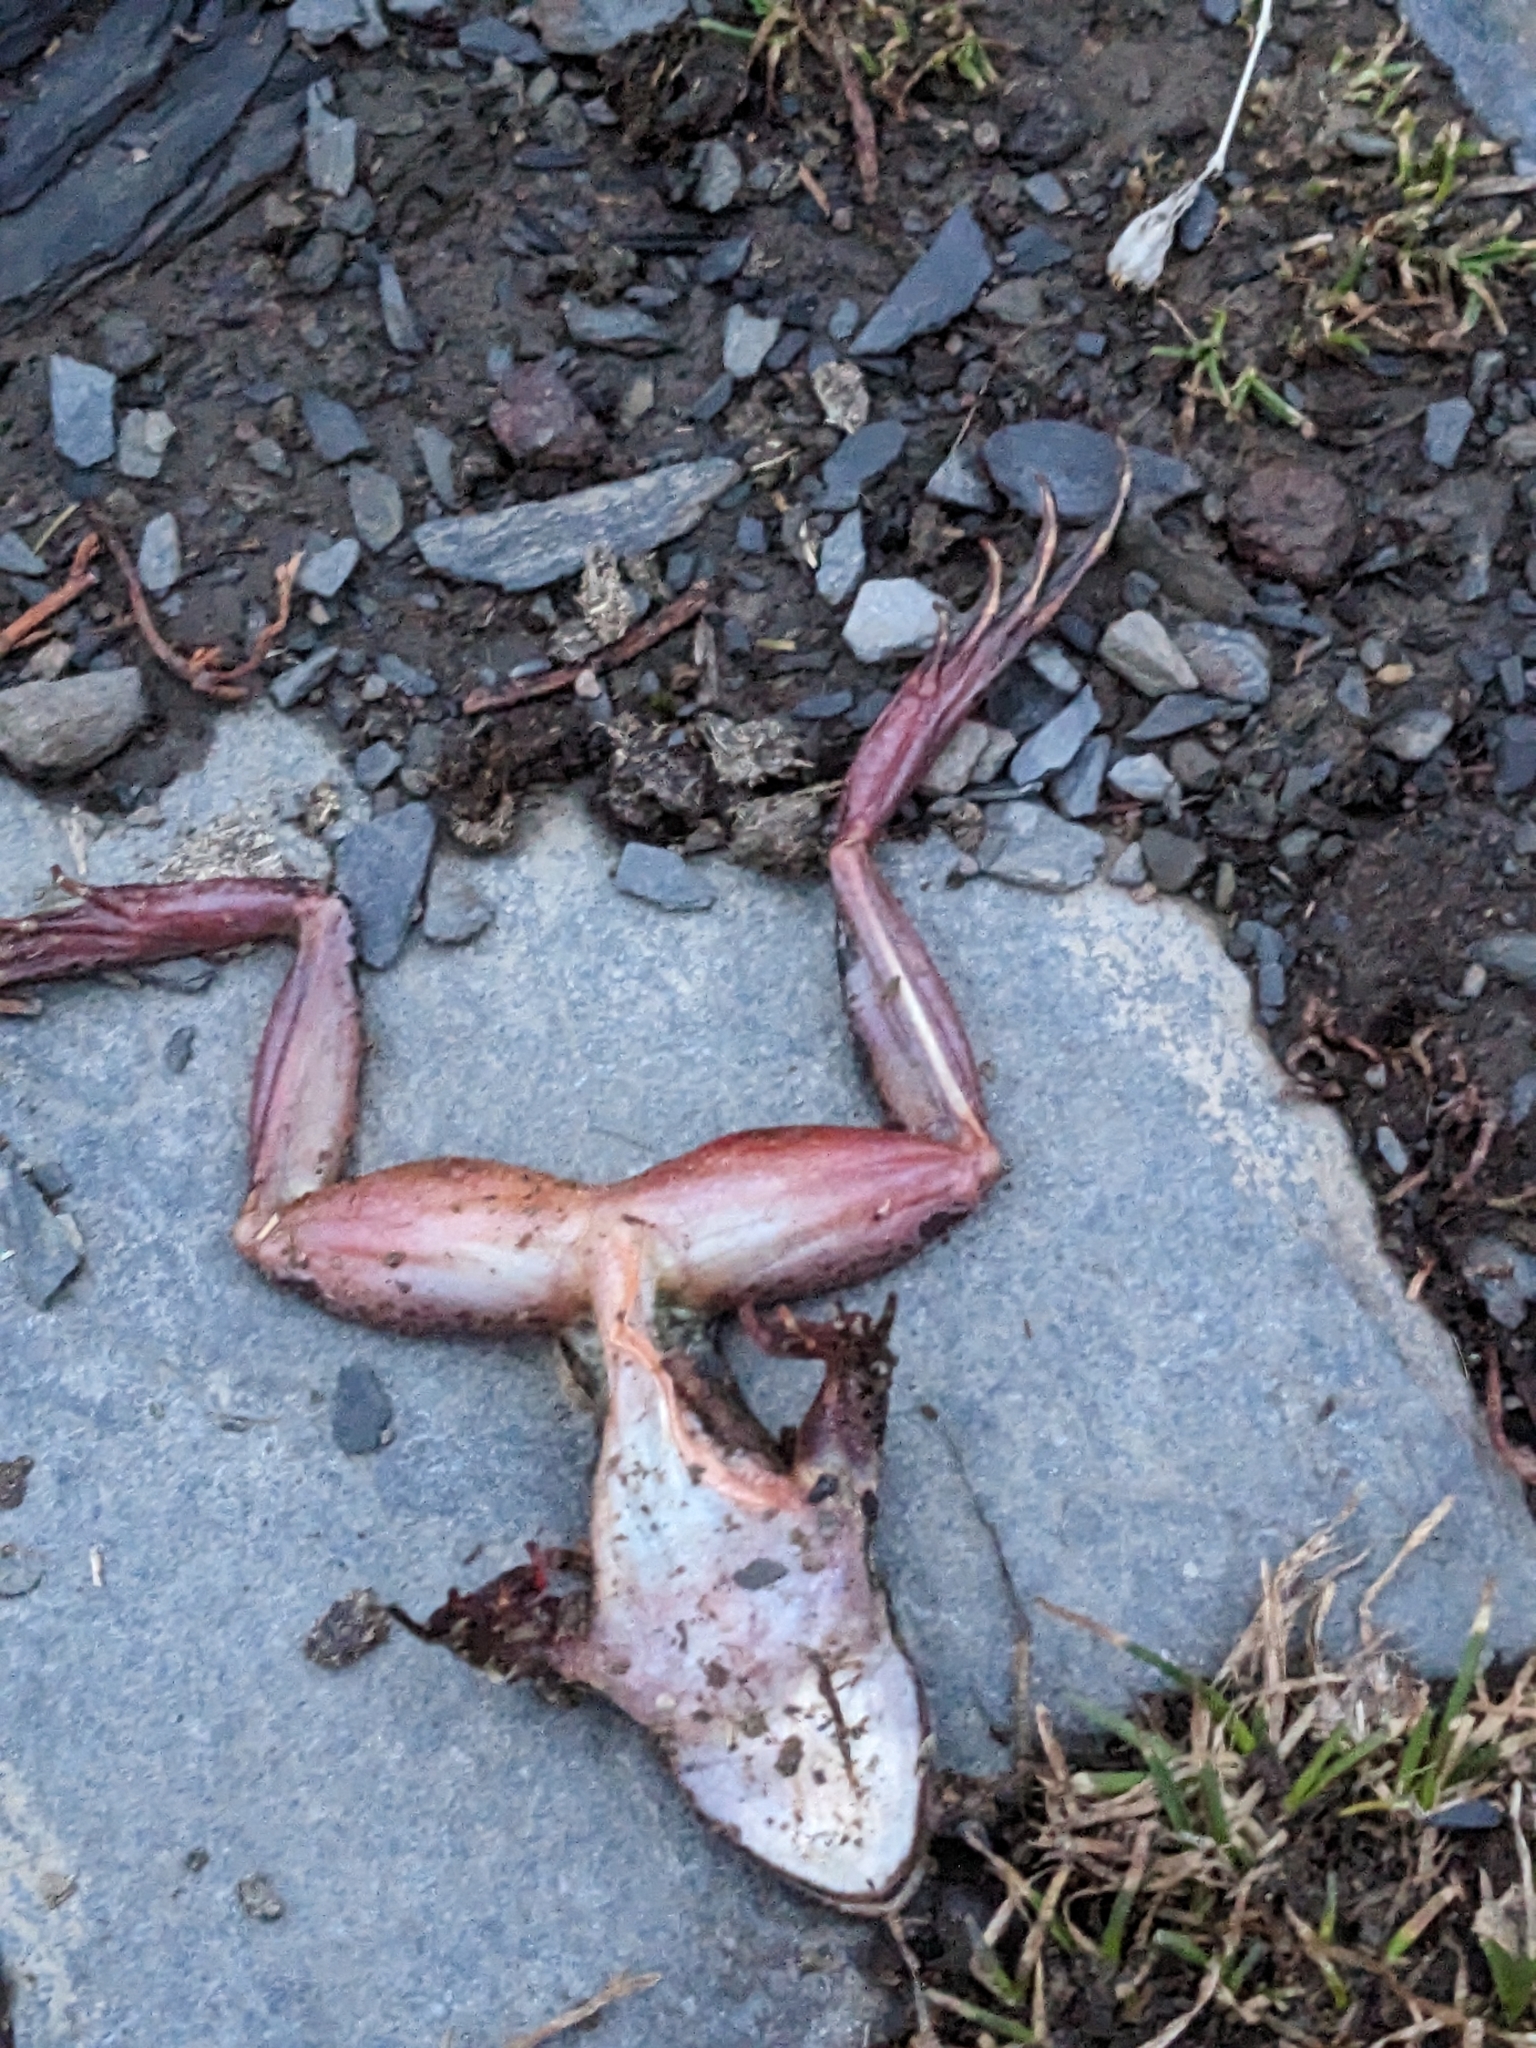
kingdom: Animalia
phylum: Chordata
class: Amphibia
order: Anura
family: Ranidae
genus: Rana
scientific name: Rana macrocnemis
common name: Banded frog
